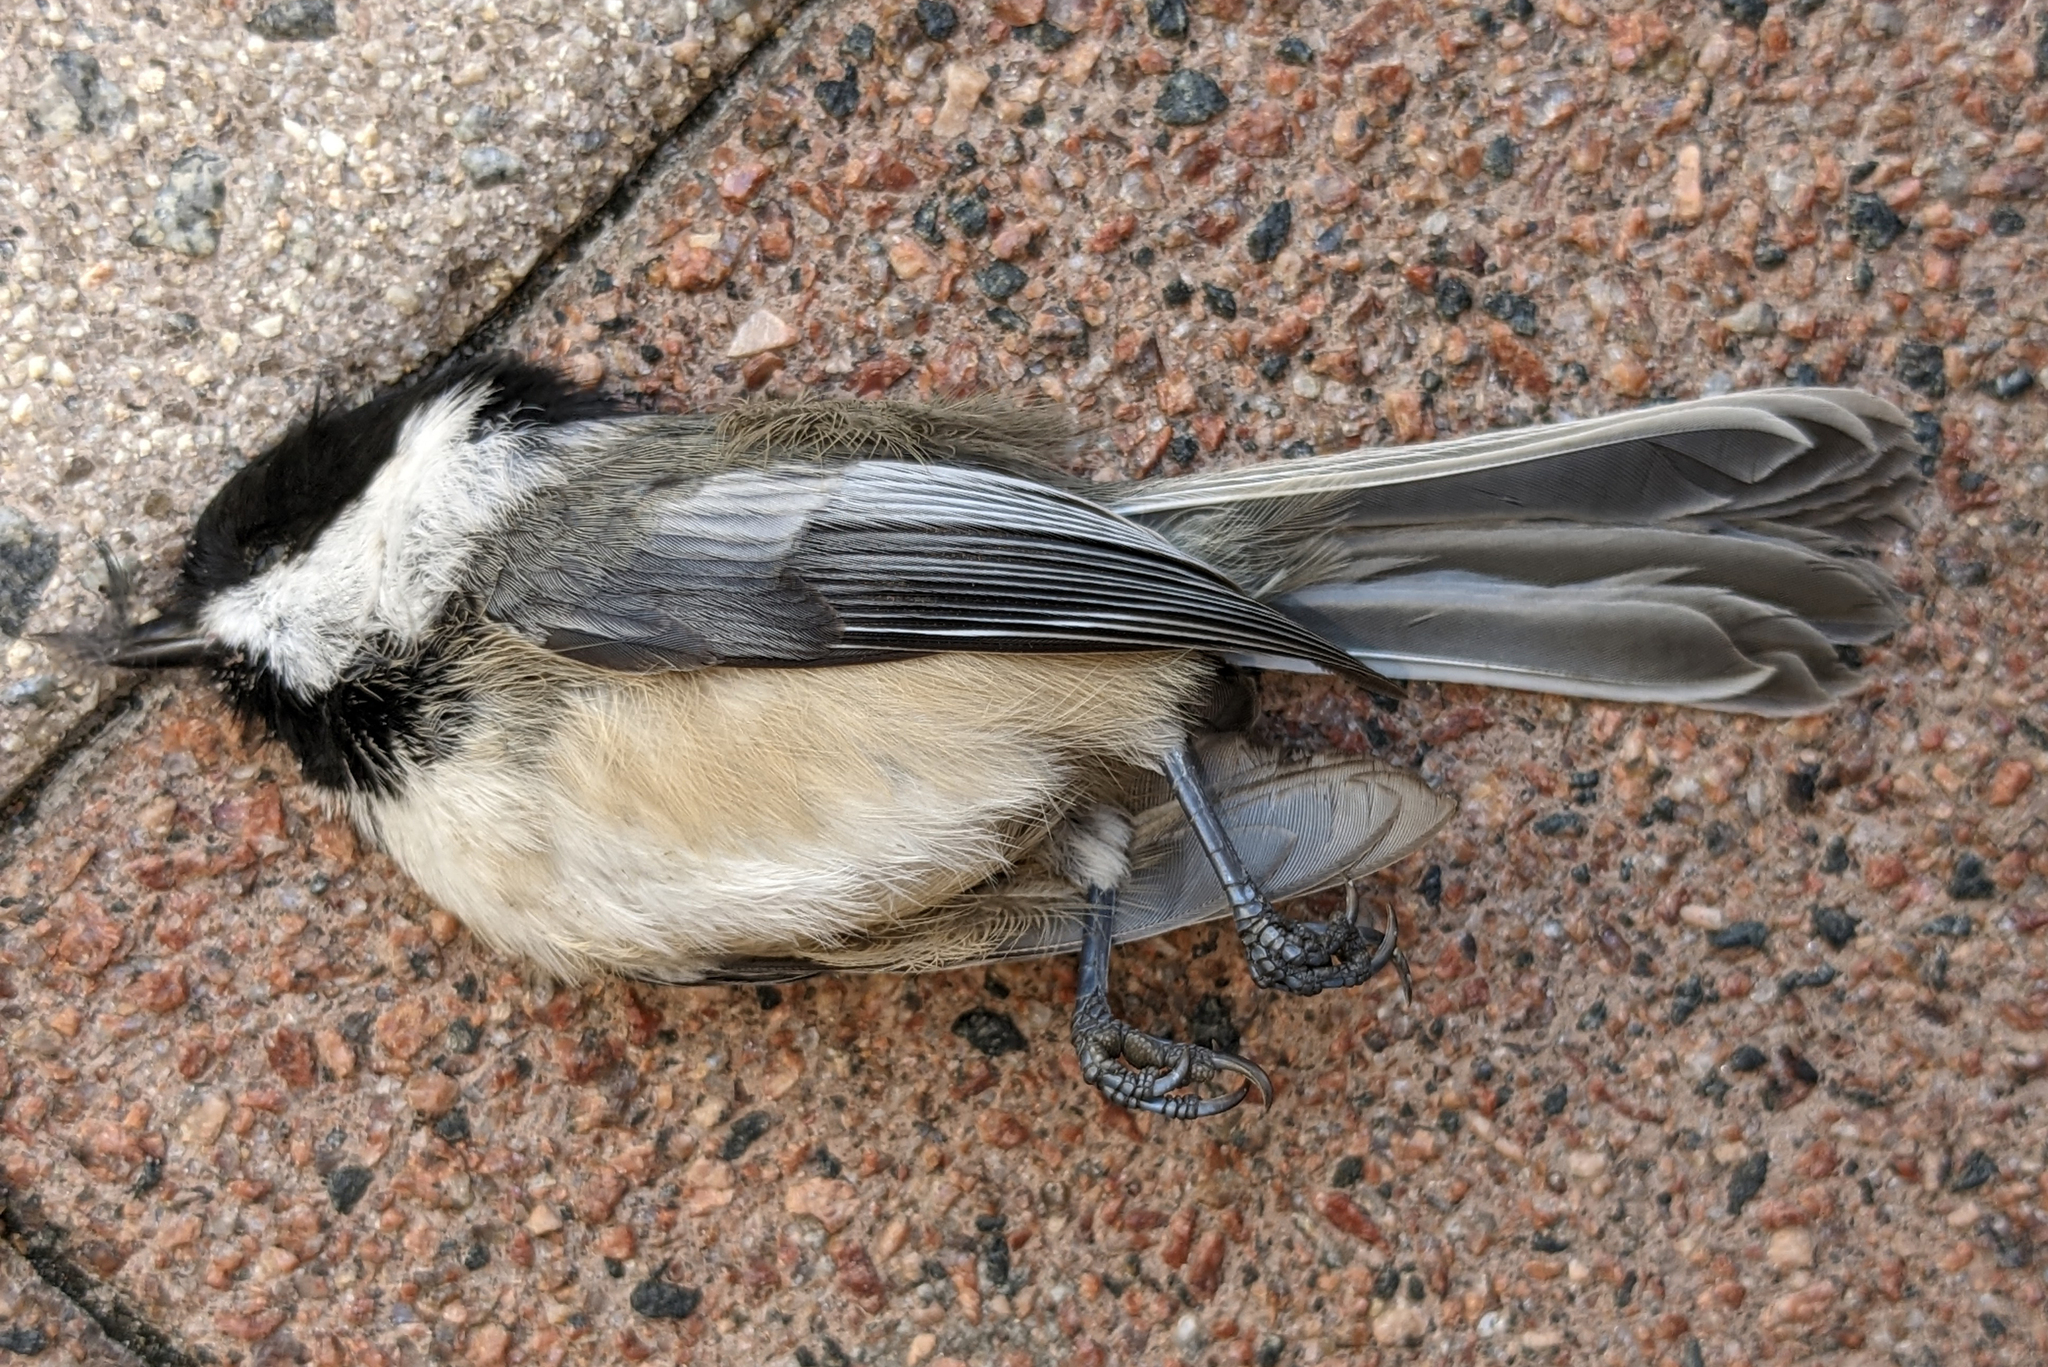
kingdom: Animalia
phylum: Chordata
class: Aves
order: Passeriformes
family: Paridae
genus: Poecile
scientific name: Poecile atricapillus
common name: Black-capped chickadee
